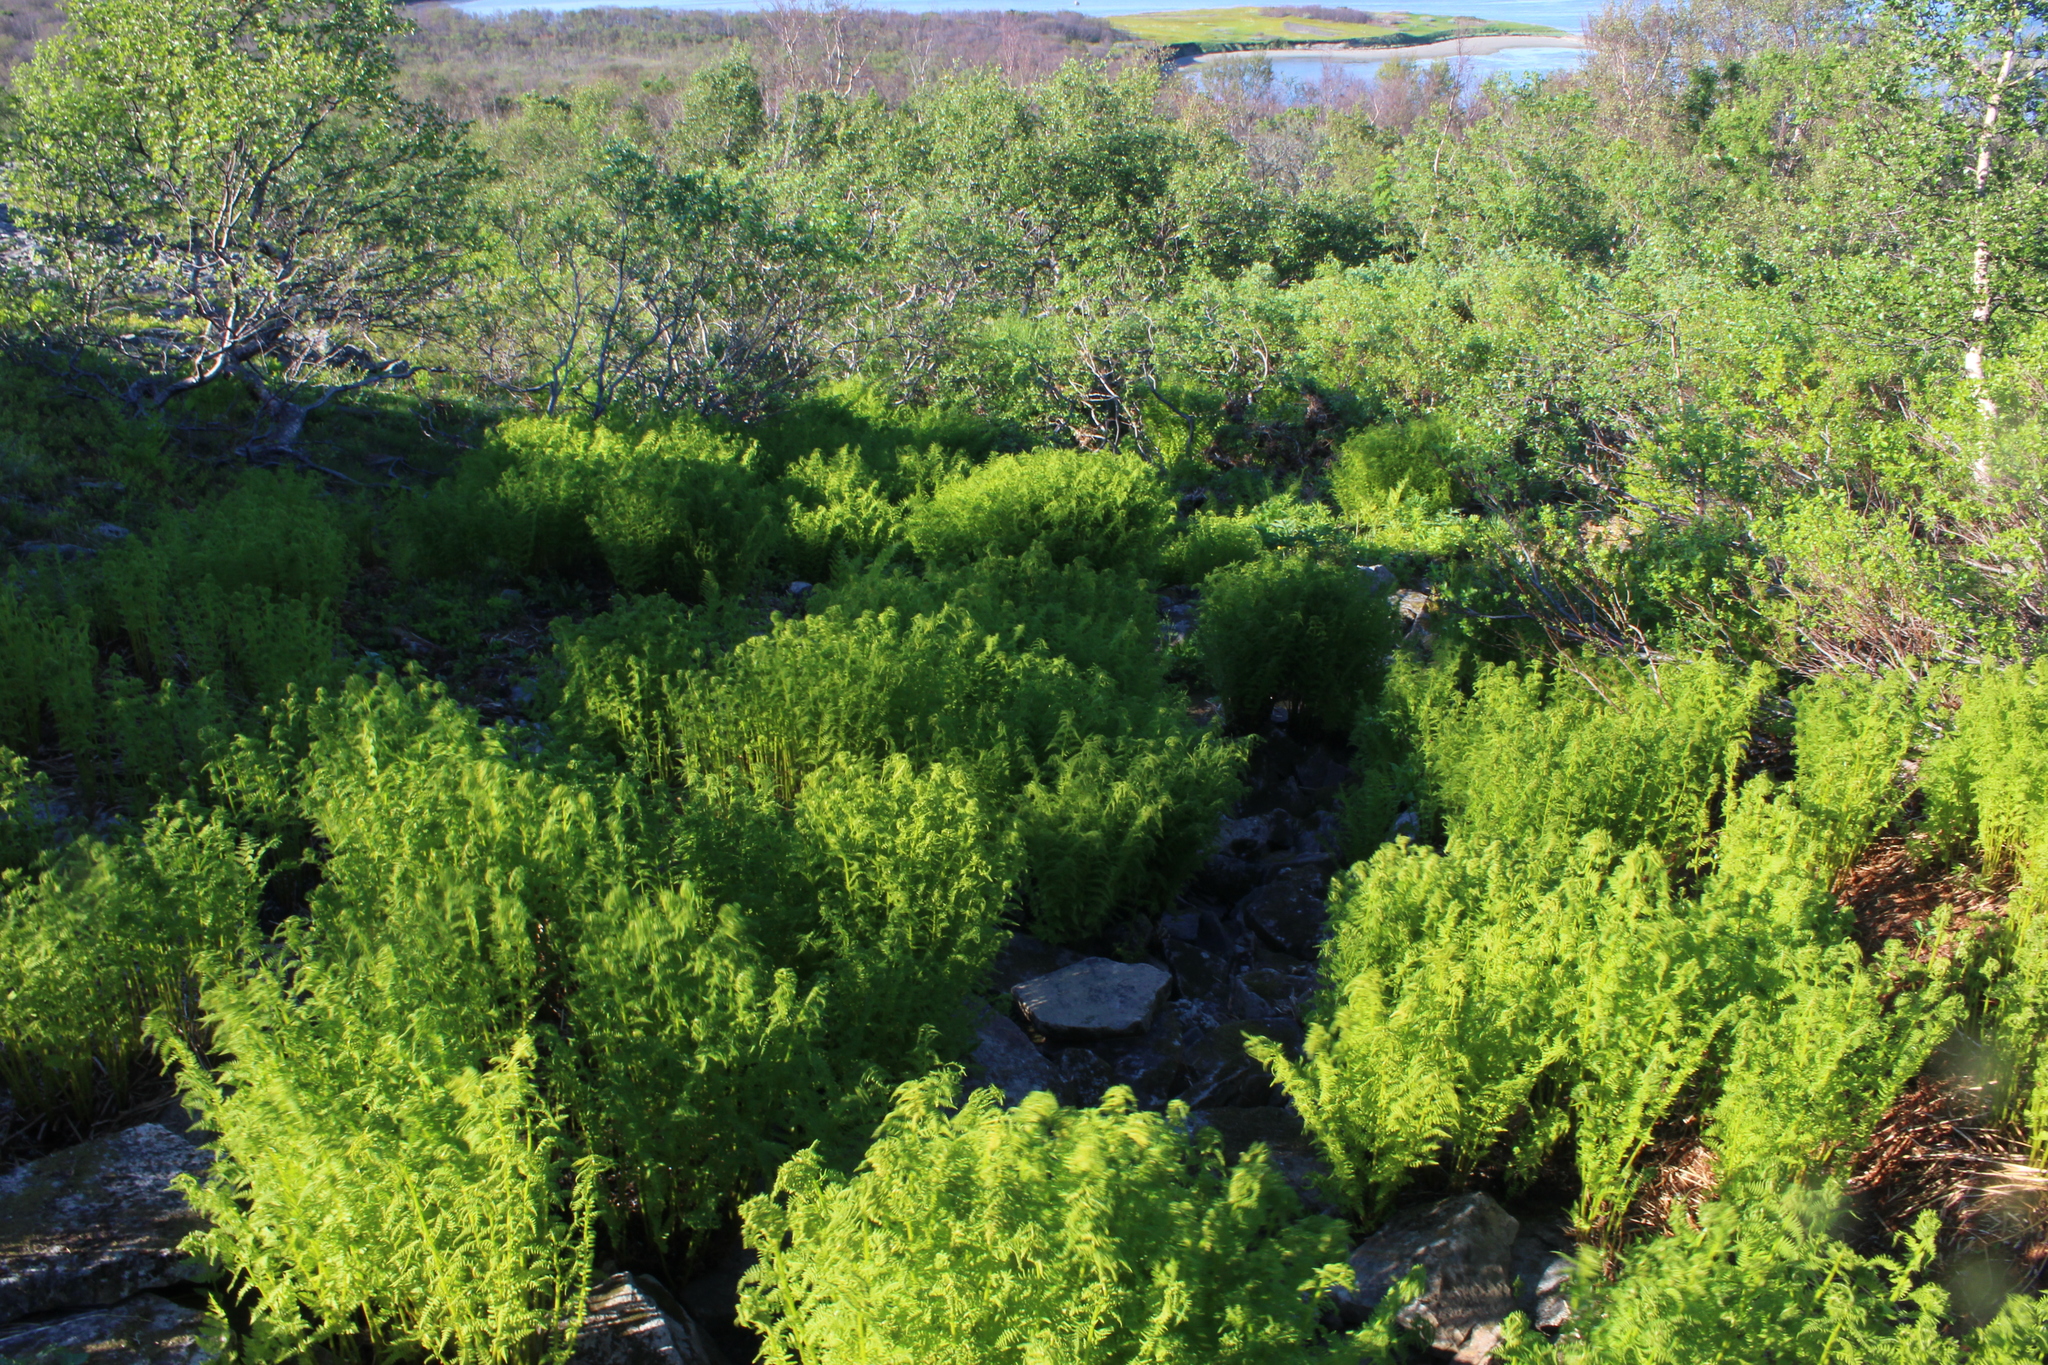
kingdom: Plantae
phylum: Tracheophyta
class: Polypodiopsida
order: Polypodiales
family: Athyriaceae
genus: Athyrium
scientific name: Athyrium filix-femina
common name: Lady fern
